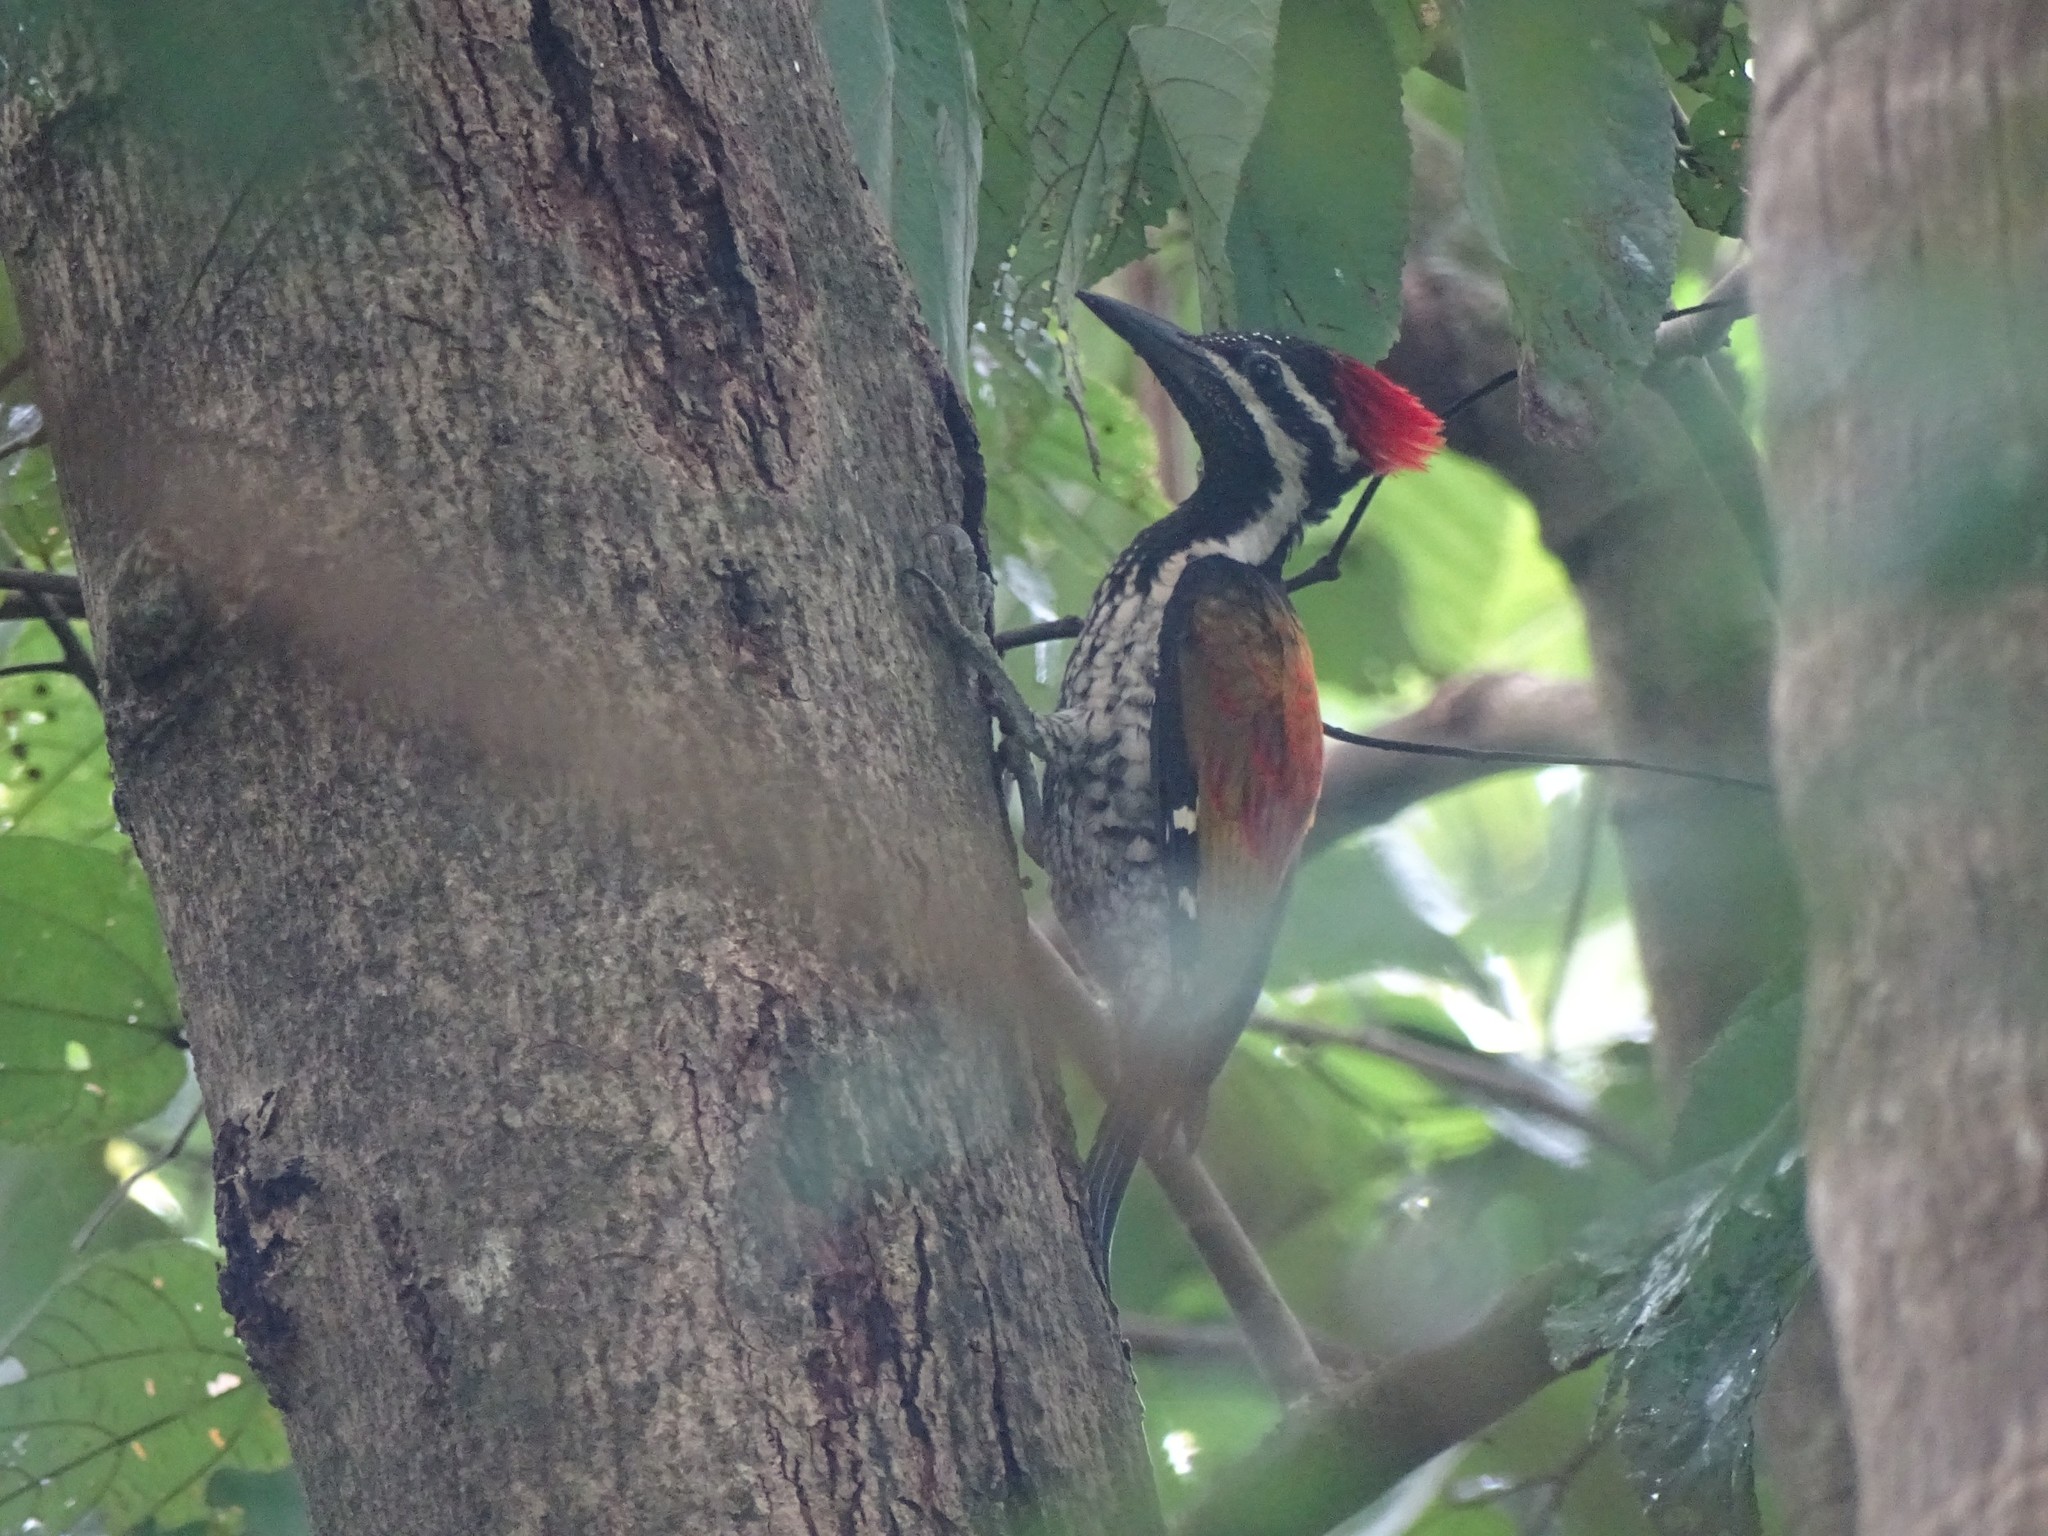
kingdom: Animalia
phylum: Chordata
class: Aves
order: Piciformes
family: Picidae
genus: Dinopium
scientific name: Dinopium benghalense
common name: Black-rumped flameback
